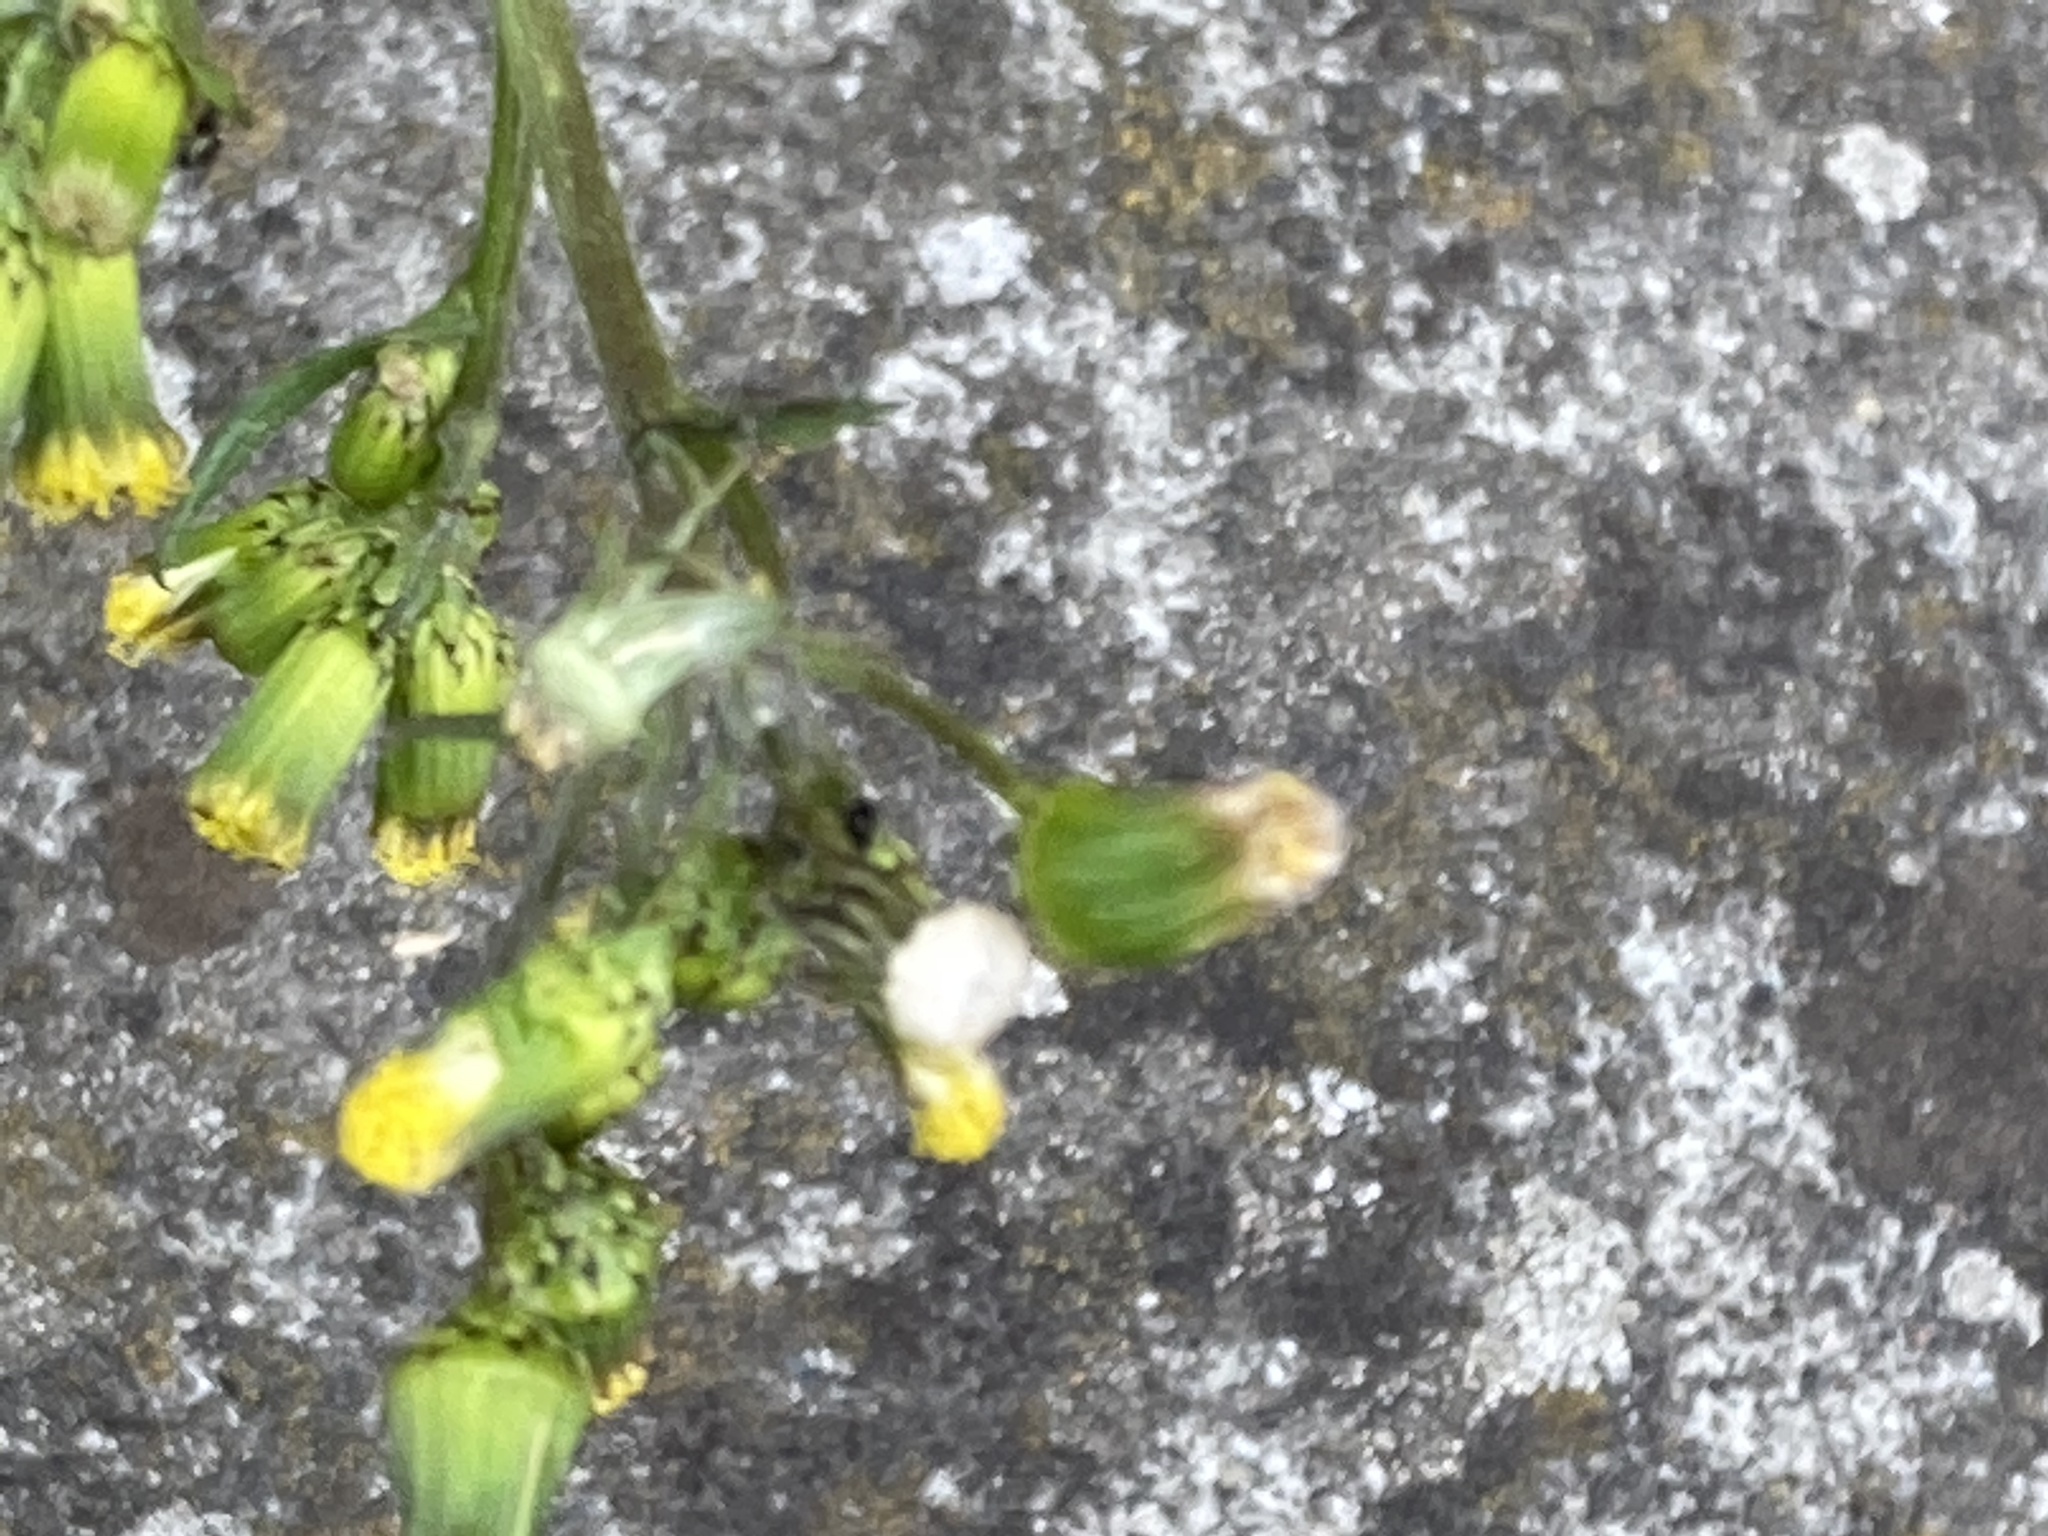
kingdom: Plantae
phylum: Tracheophyta
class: Magnoliopsida
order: Asterales
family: Asteraceae
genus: Senecio
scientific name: Senecio vulgaris
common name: Old-man-in-the-spring
